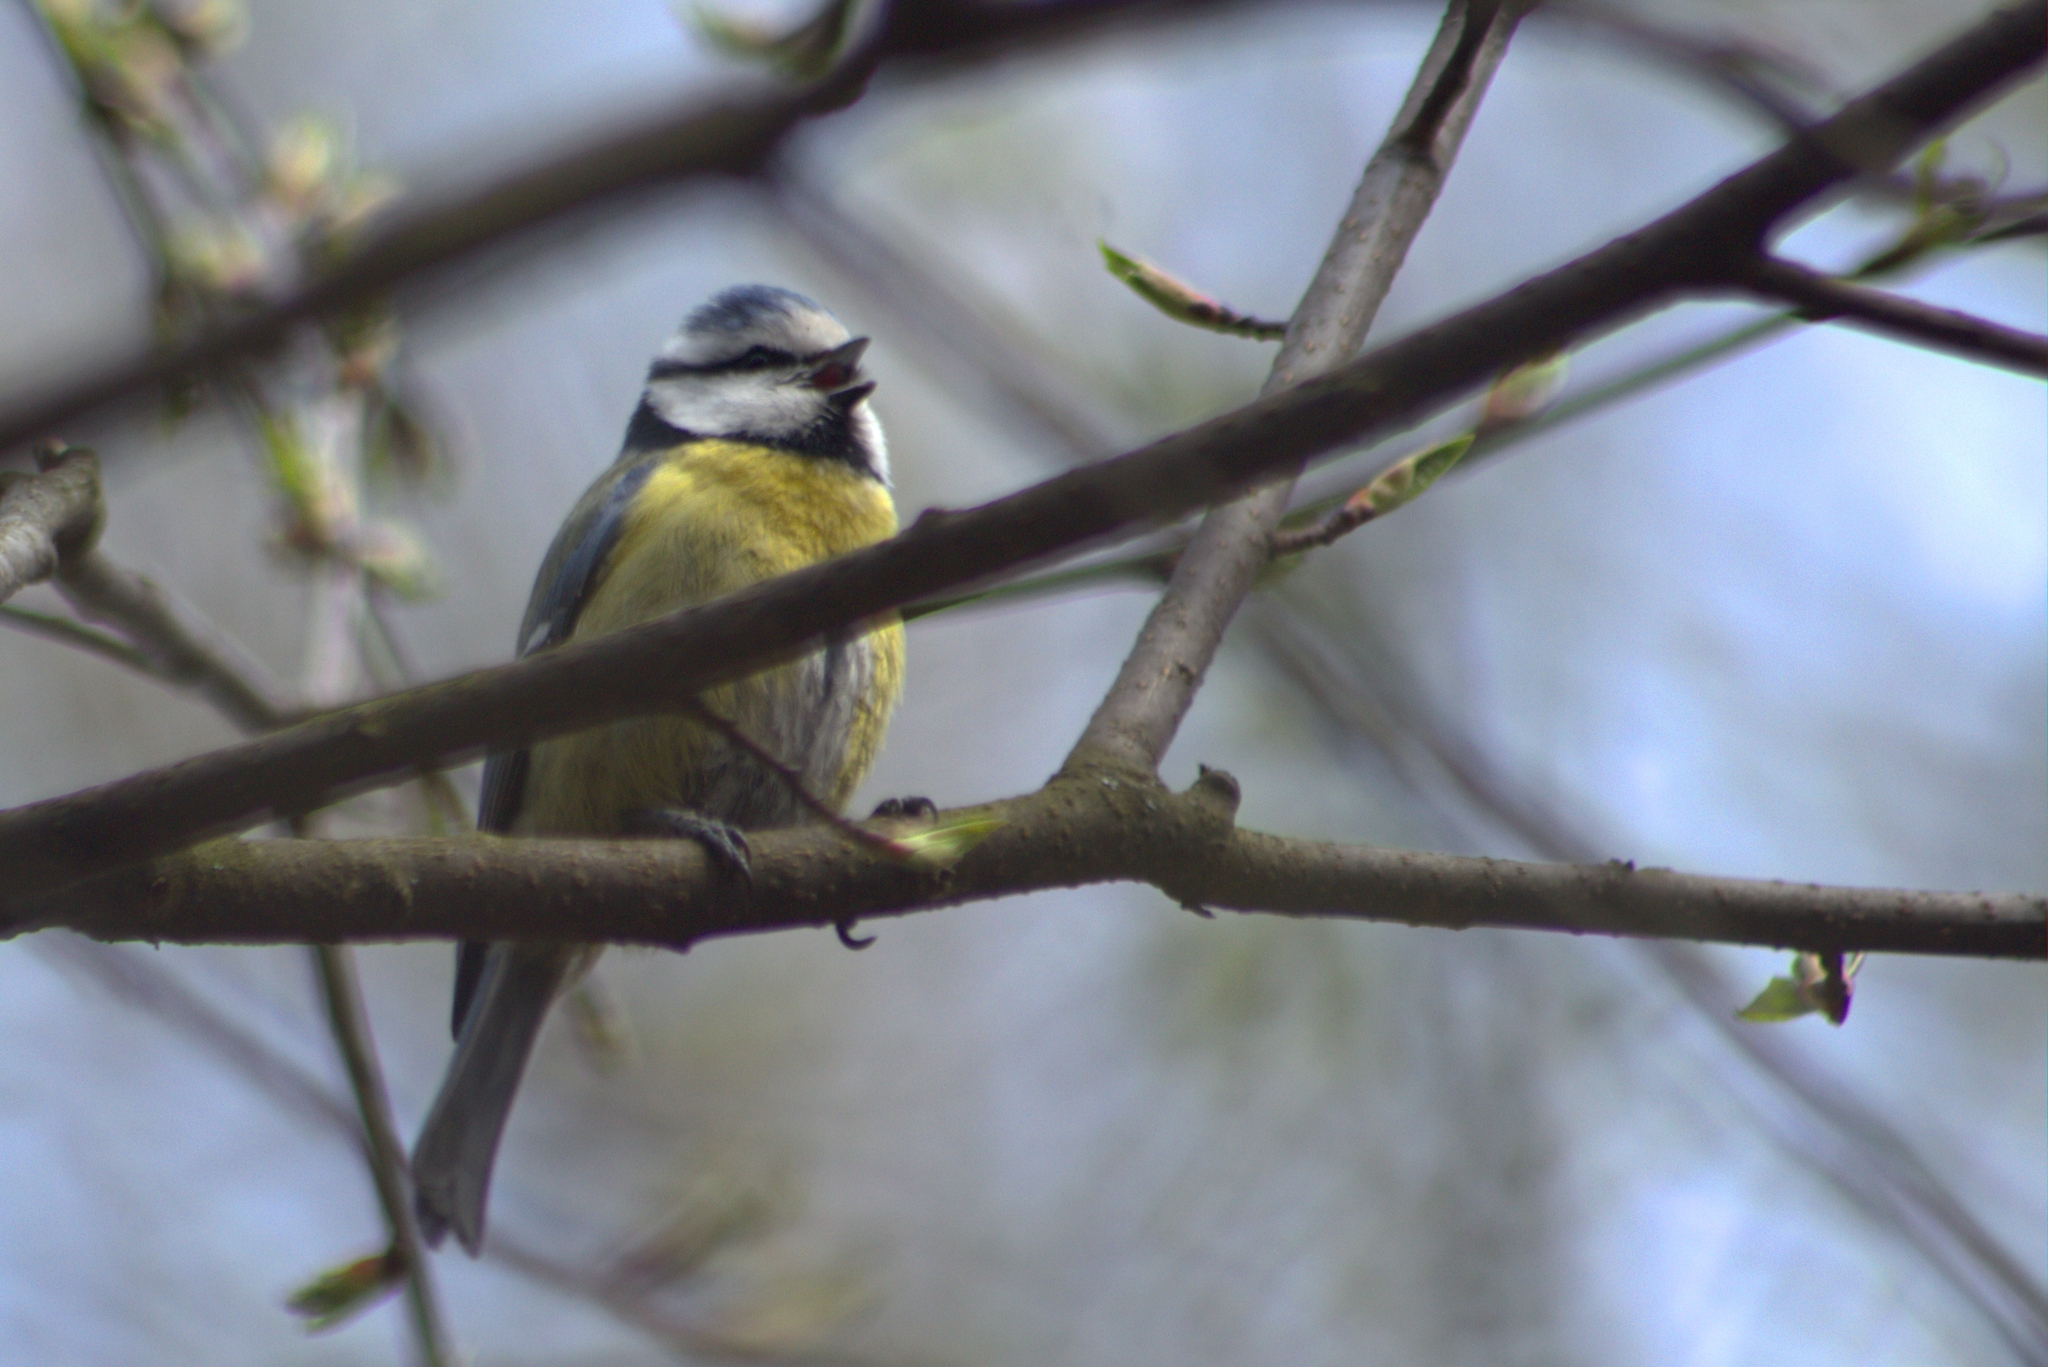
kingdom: Animalia
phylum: Chordata
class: Aves
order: Passeriformes
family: Paridae
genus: Cyanistes
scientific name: Cyanistes caeruleus
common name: Eurasian blue tit
